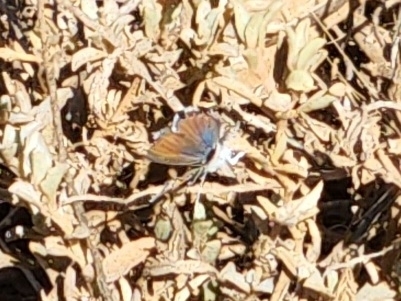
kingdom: Animalia
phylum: Arthropoda
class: Insecta
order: Lepidoptera
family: Lycaenidae
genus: Brephidium
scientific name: Brephidium exilis
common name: Pygmy blue
